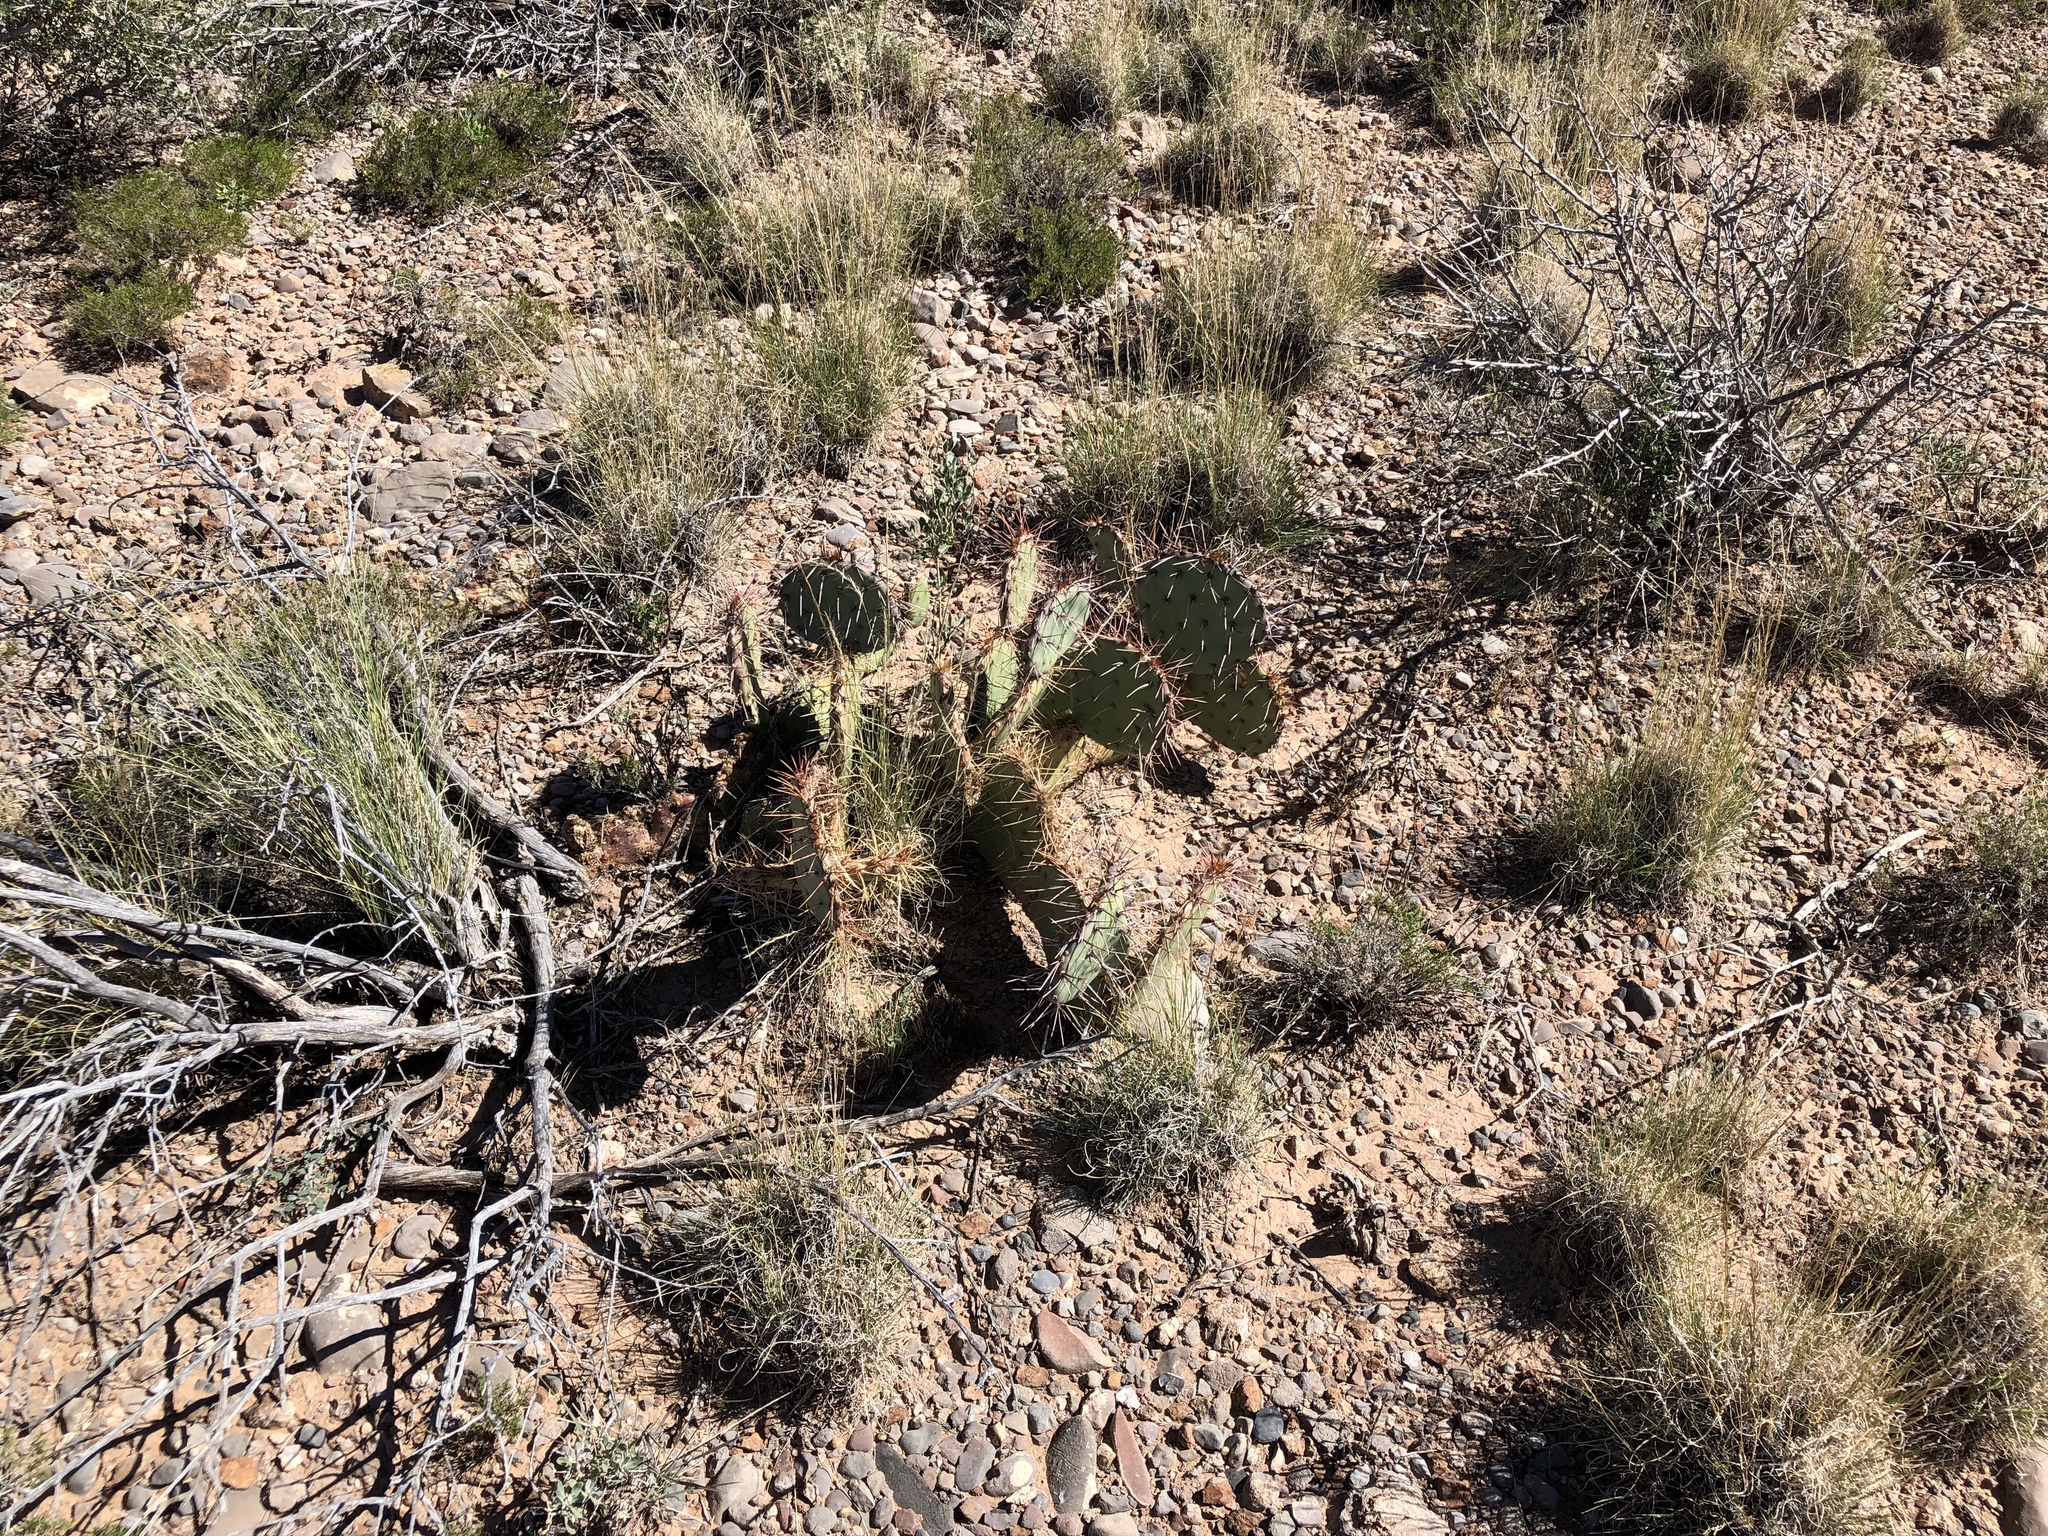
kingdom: Plantae
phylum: Tracheophyta
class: Magnoliopsida
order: Caryophyllales
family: Cactaceae
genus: Opuntia
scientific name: Opuntia phaeacantha
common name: New mexico prickly-pear
